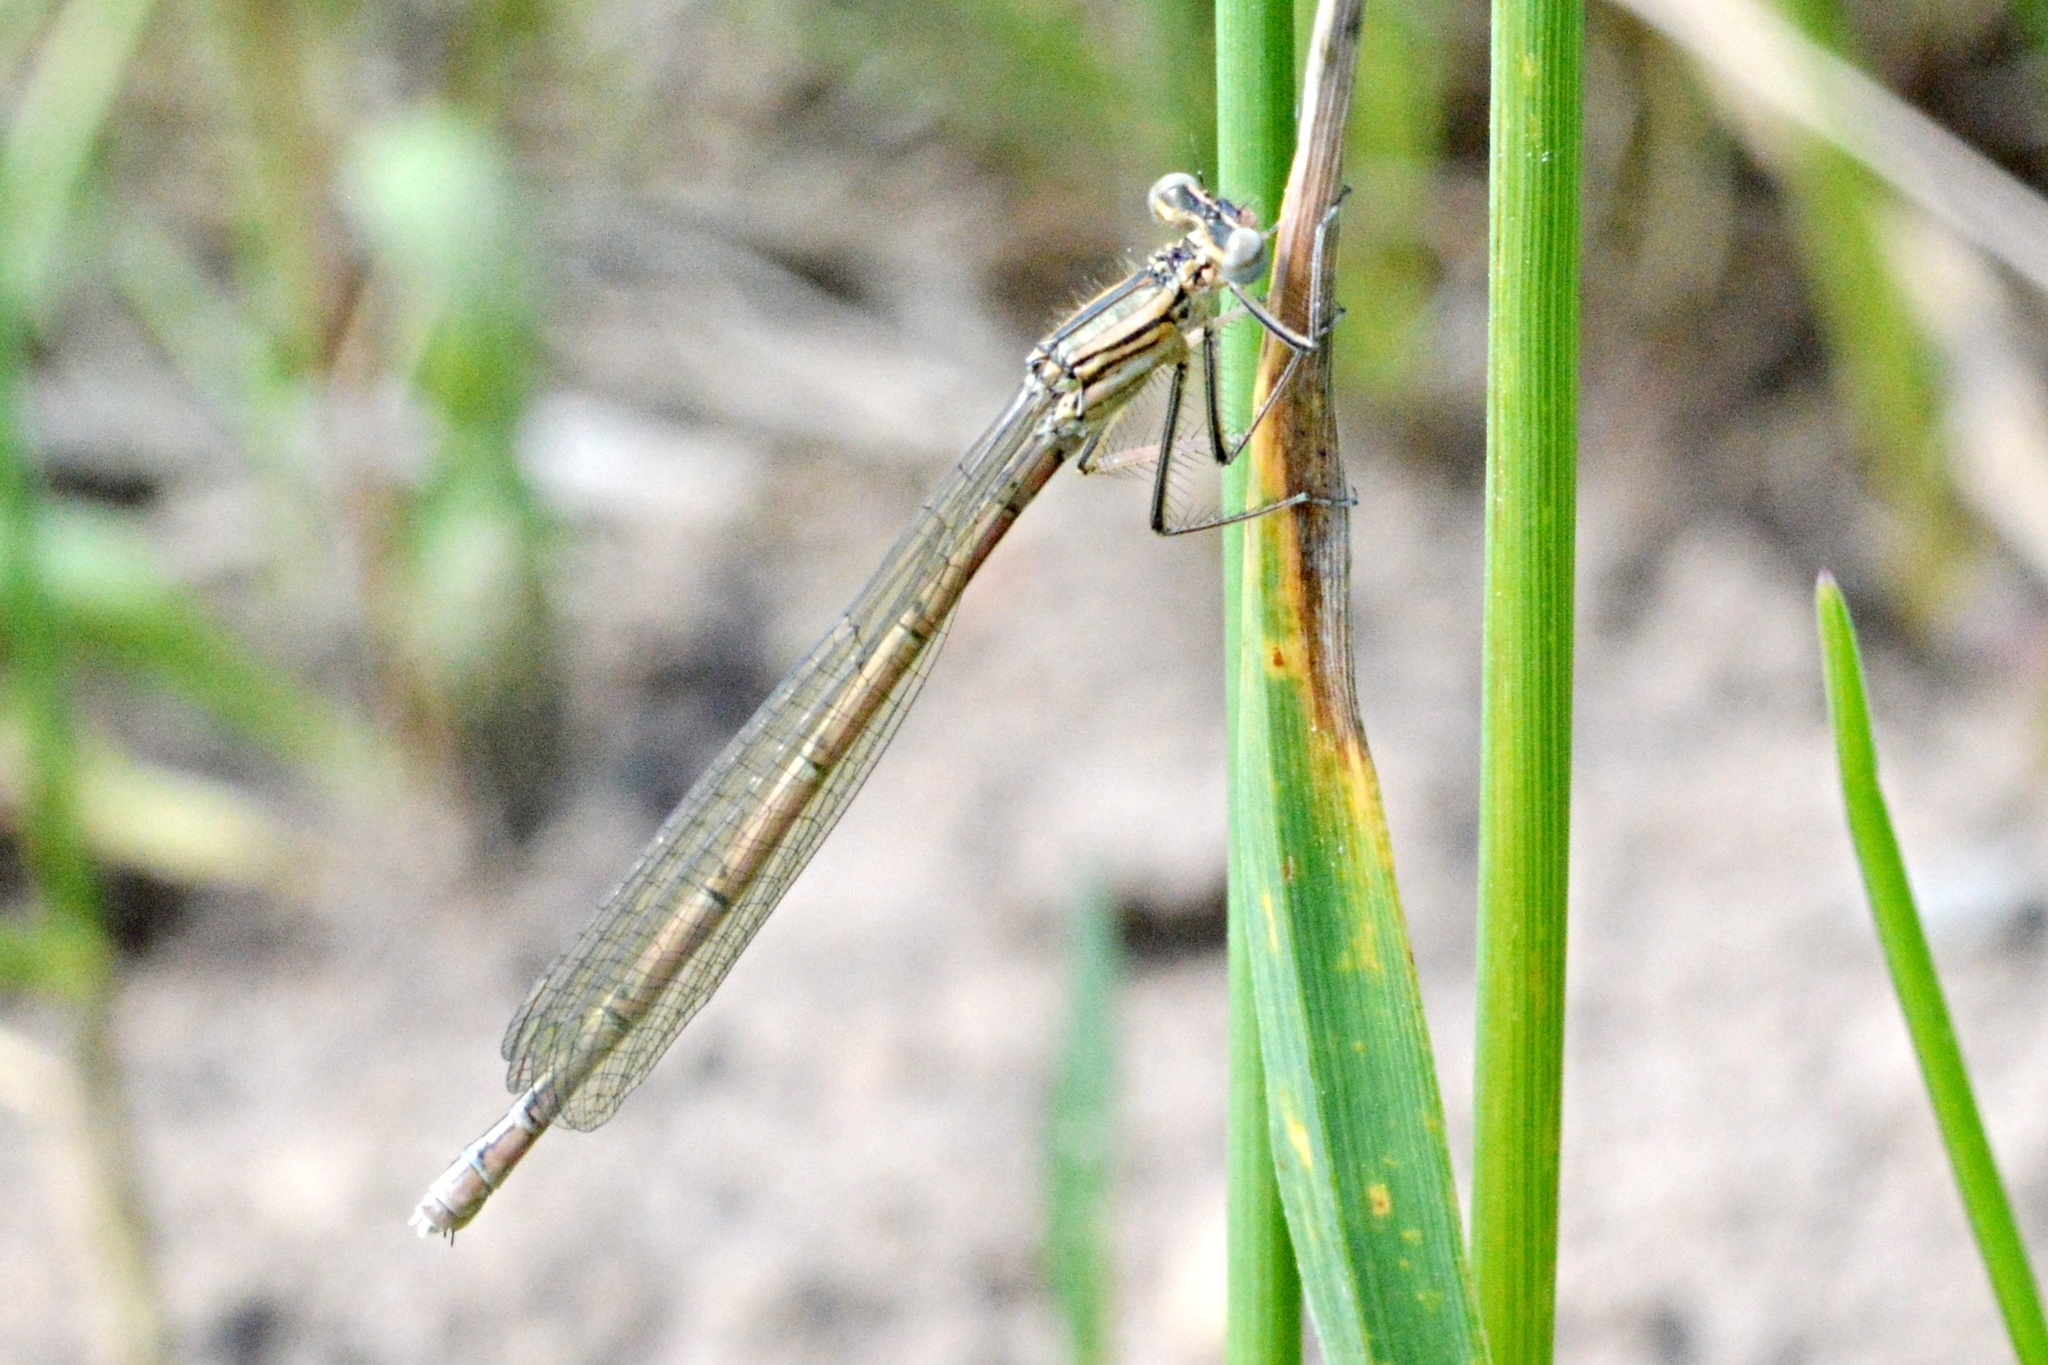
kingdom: Animalia
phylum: Arthropoda
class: Insecta
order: Odonata
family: Platycnemididae
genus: Platycnemis
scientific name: Platycnemis pennipes
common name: White-legged damselfly
